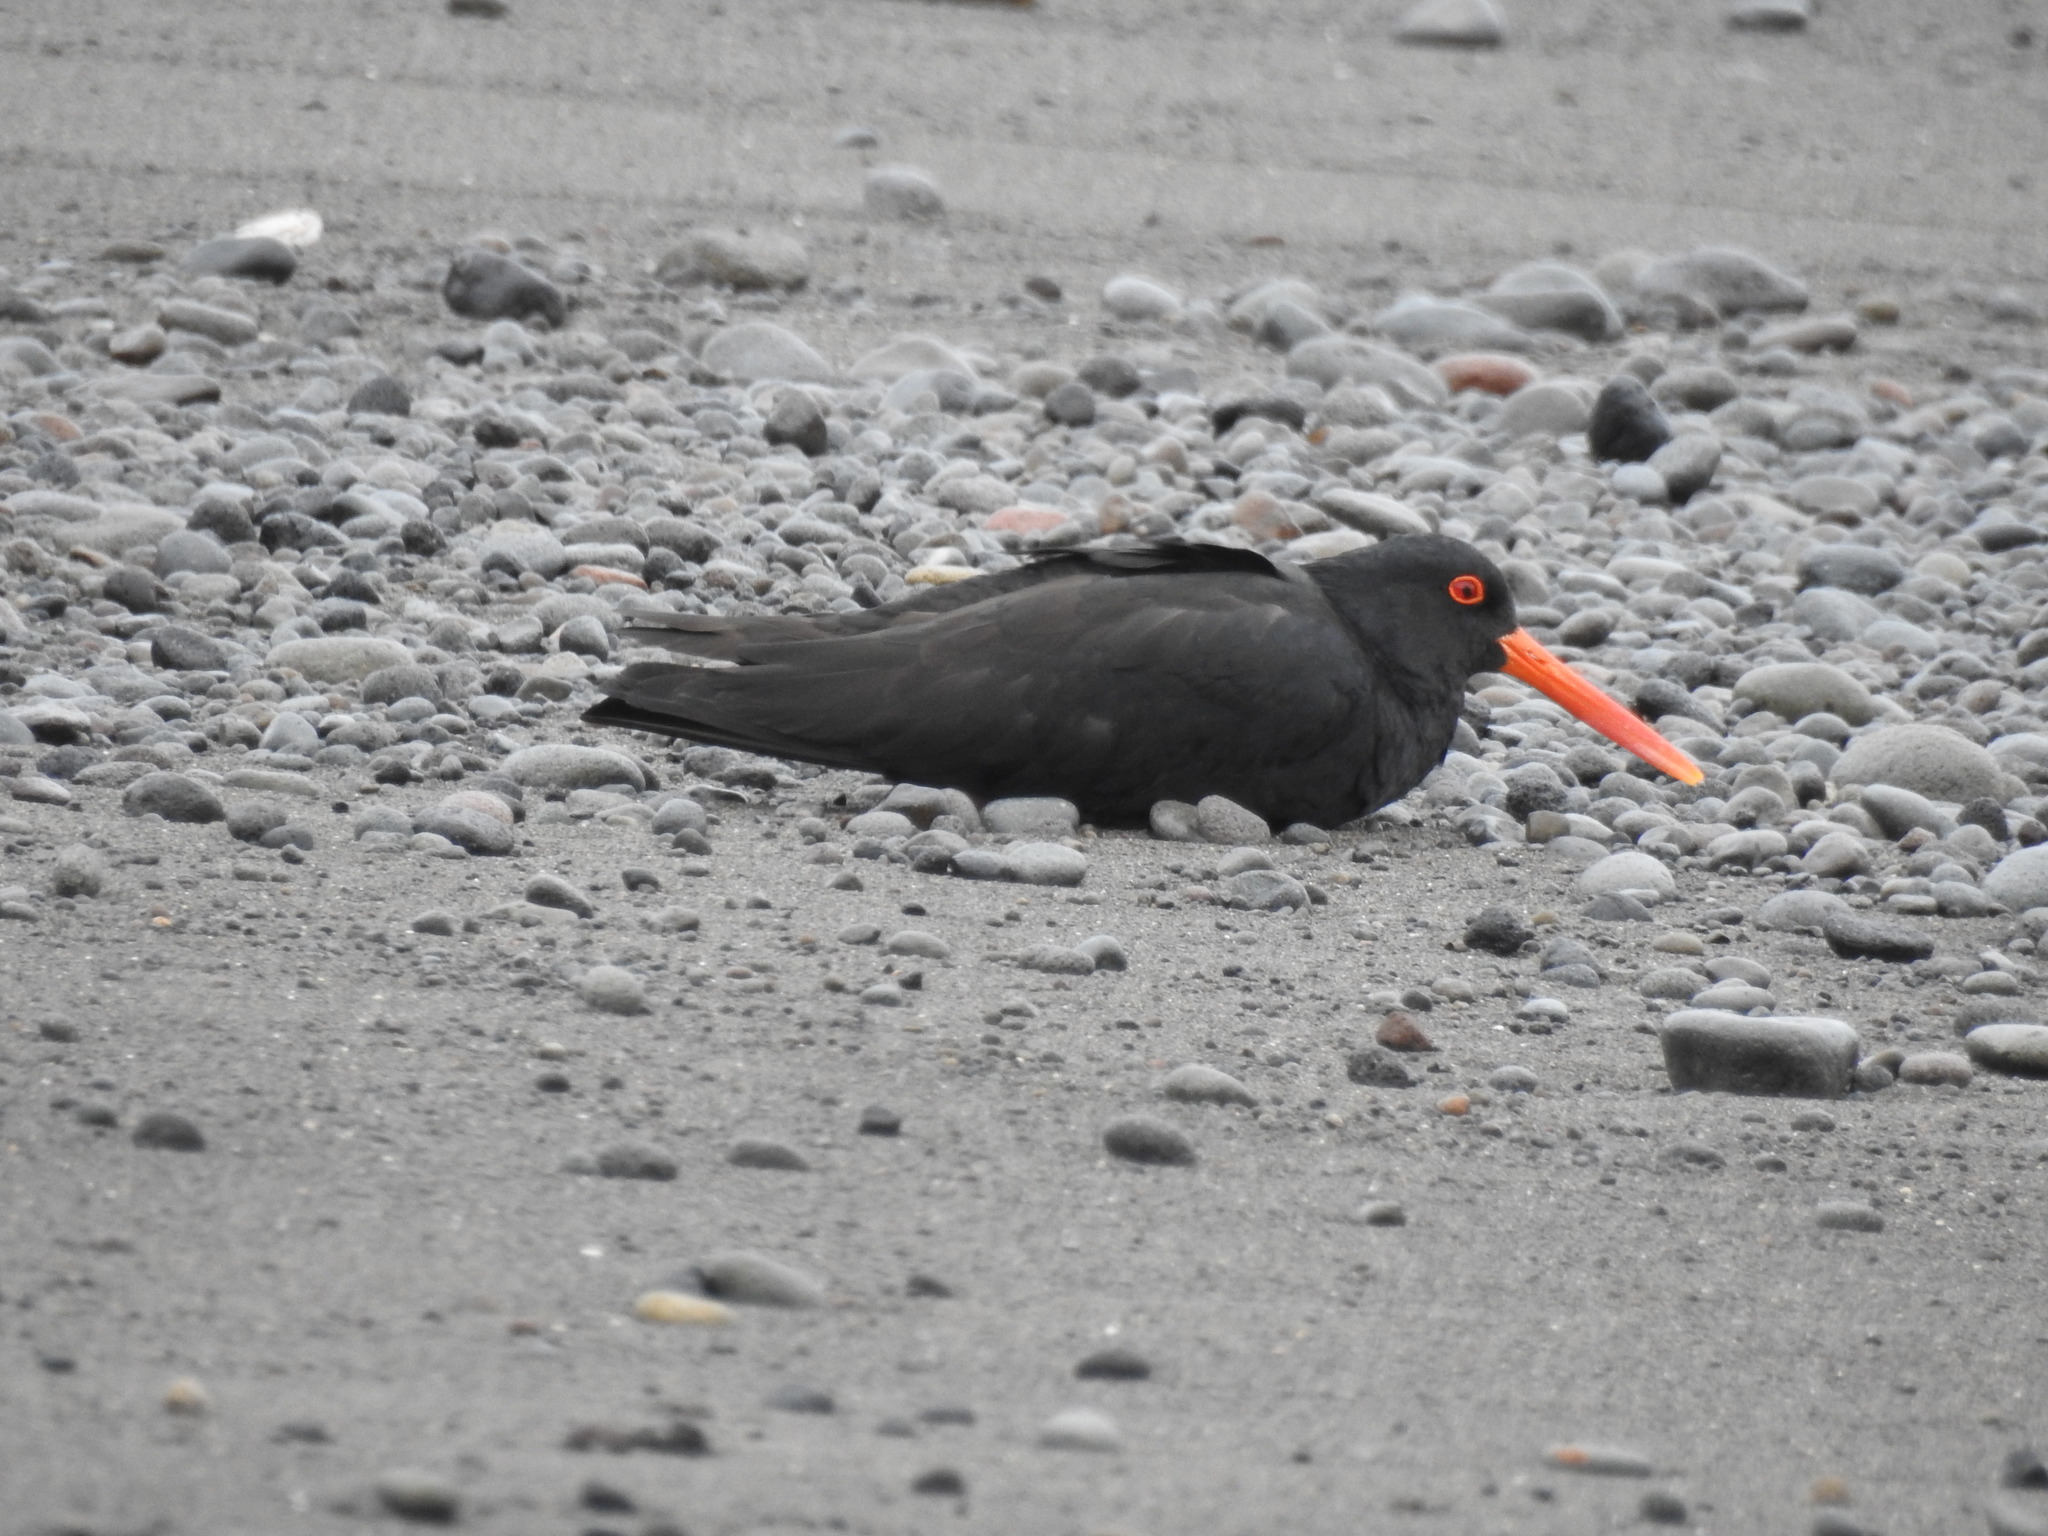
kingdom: Animalia
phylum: Chordata
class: Aves
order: Charadriiformes
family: Haematopodidae
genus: Haematopus
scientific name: Haematopus unicolor
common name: Variable oystercatcher
